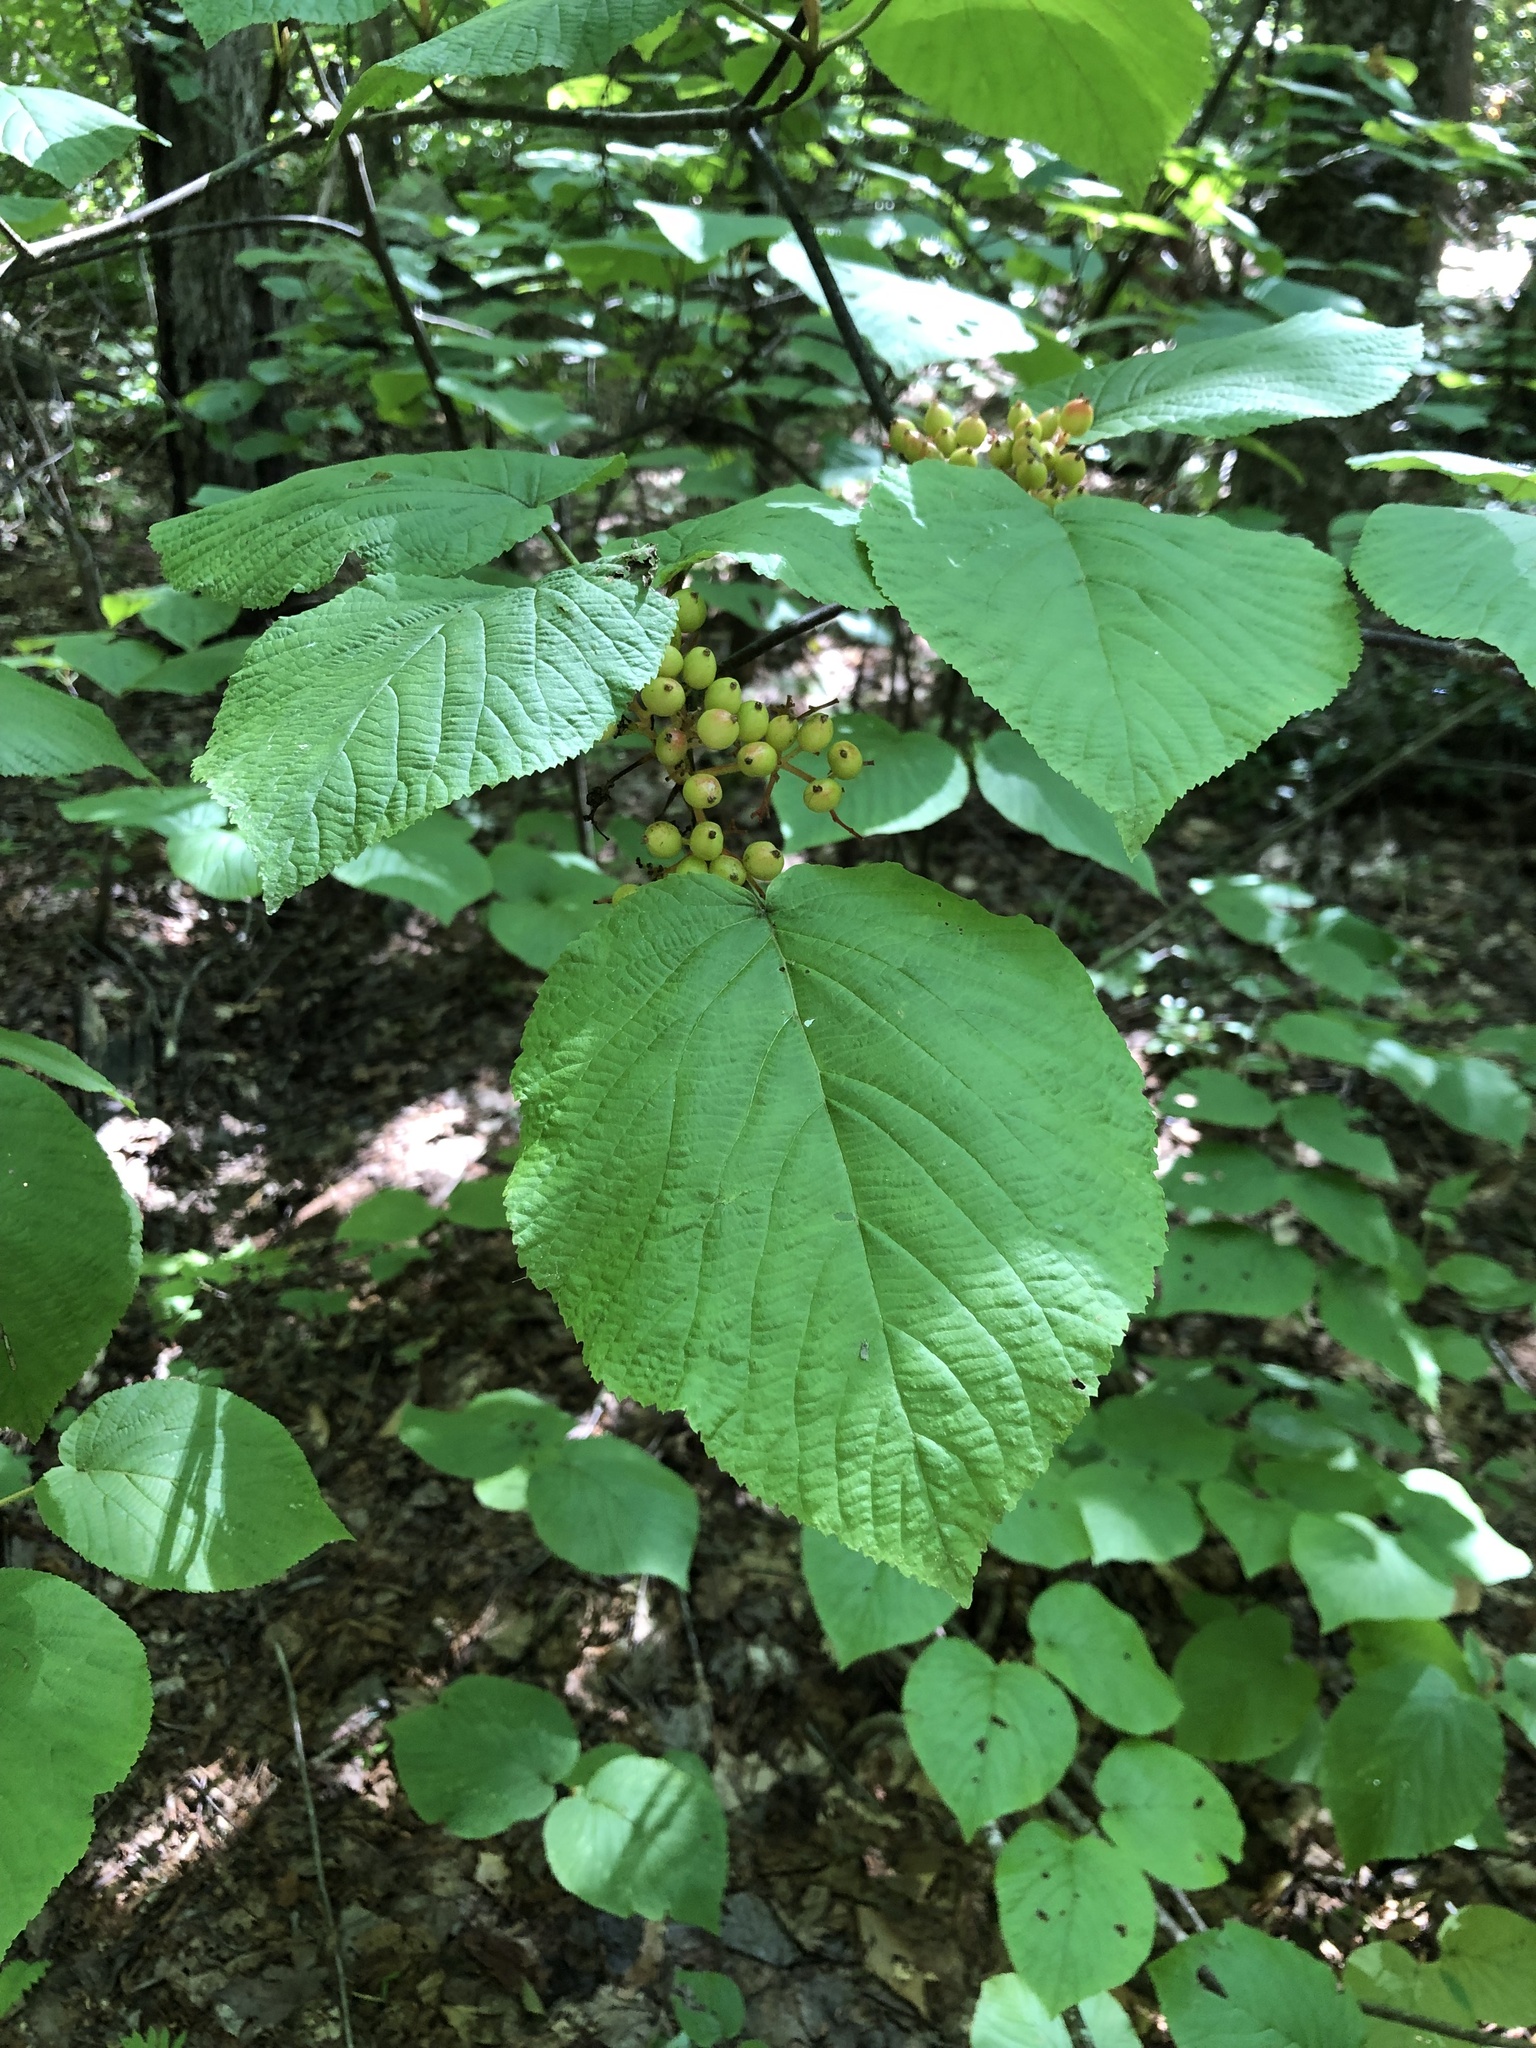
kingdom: Plantae
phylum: Tracheophyta
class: Magnoliopsida
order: Dipsacales
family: Viburnaceae
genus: Viburnum
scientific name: Viburnum lantanoides
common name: Hobblebush
